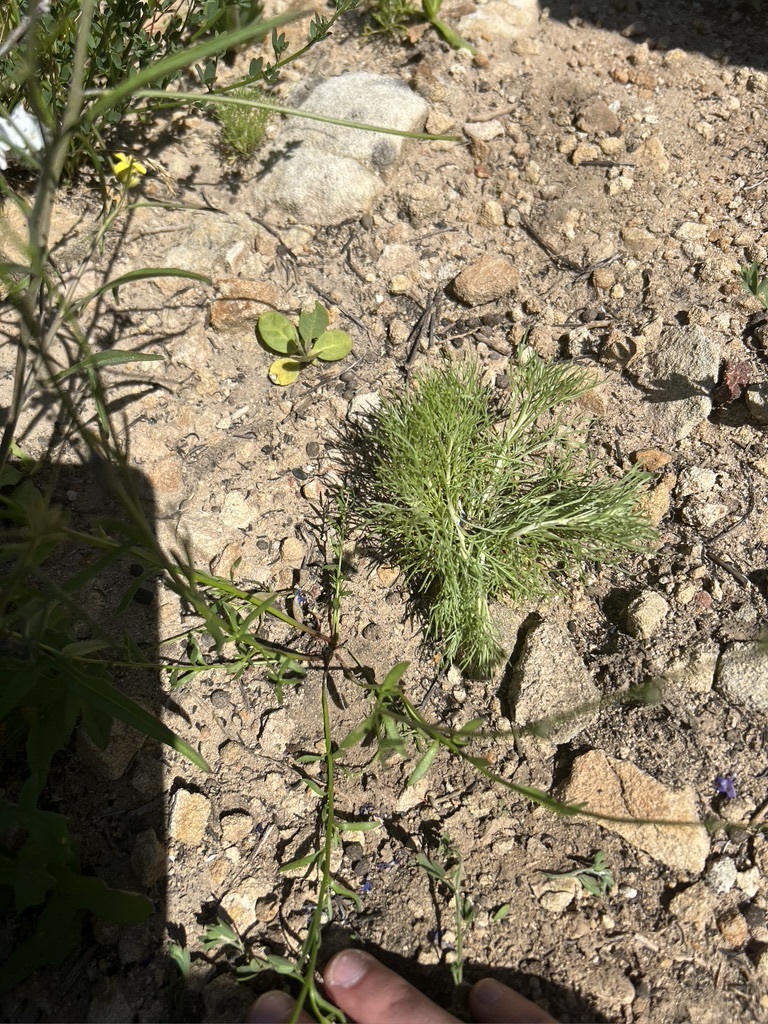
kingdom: Plantae
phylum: Tracheophyta
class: Magnoliopsida
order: Lamiales
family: Plantaginaceae
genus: Nuttallanthus
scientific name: Nuttallanthus texanus
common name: Texas toadflax
